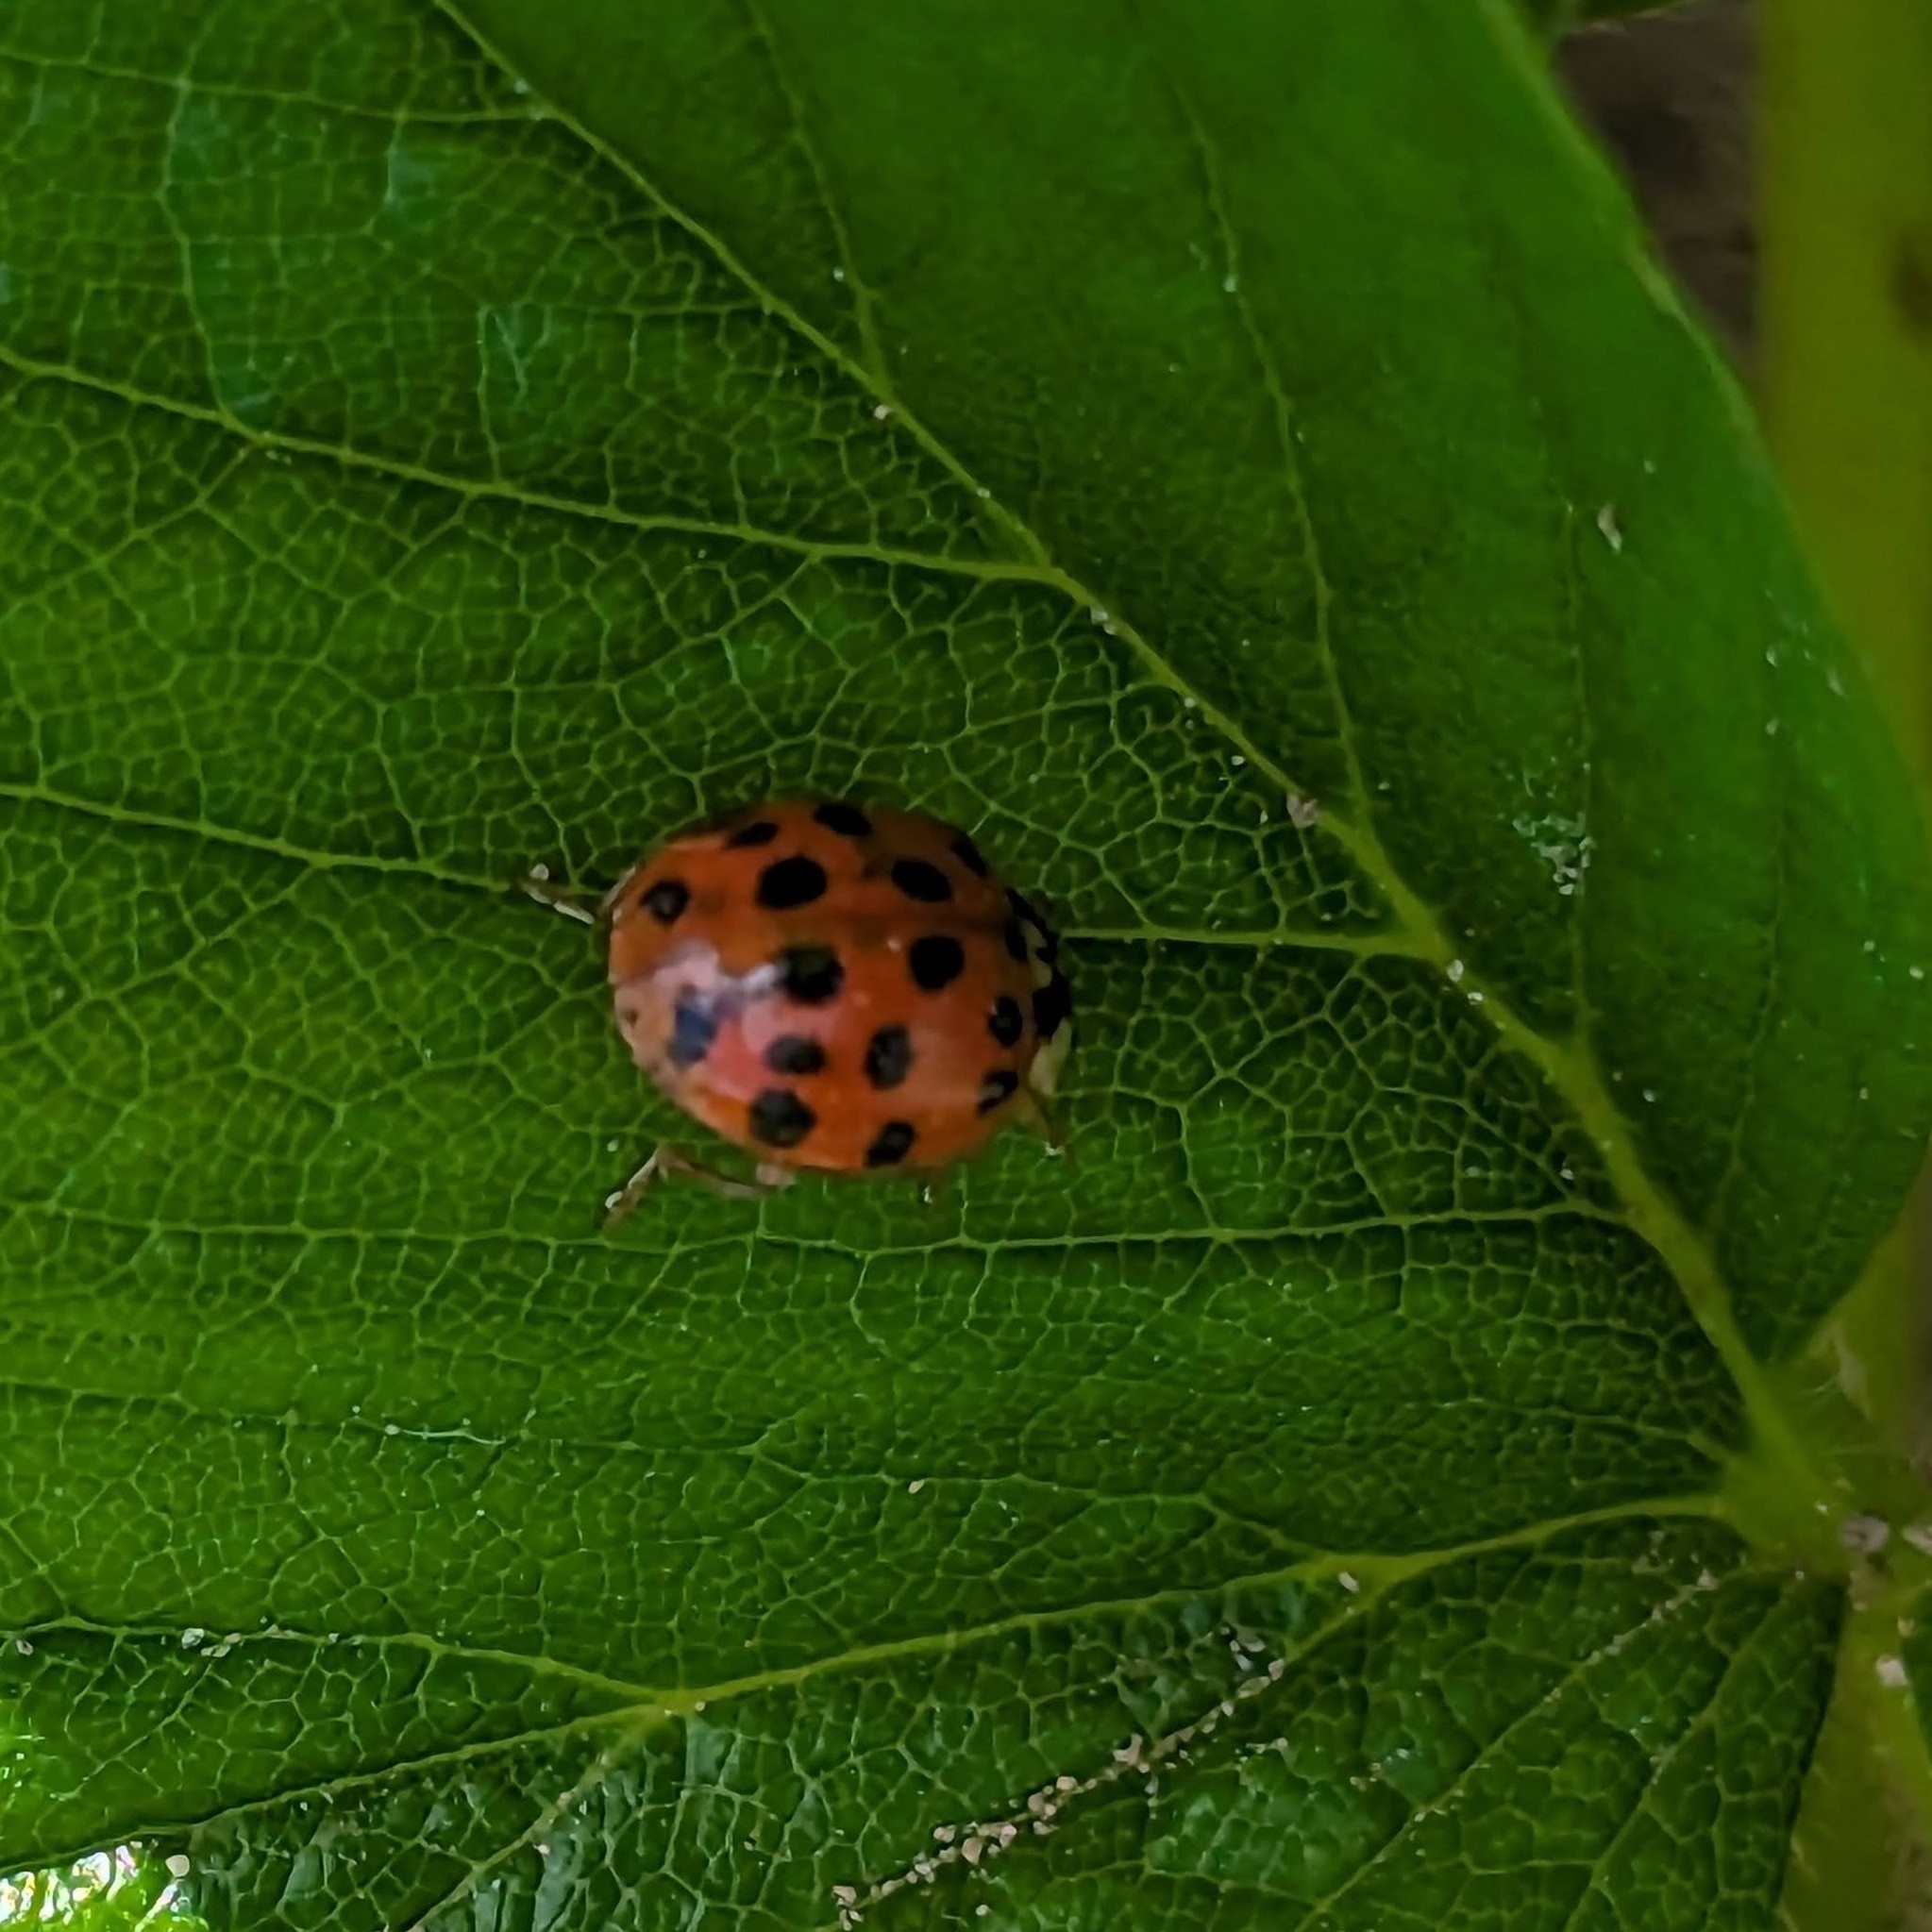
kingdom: Animalia
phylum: Arthropoda
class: Insecta
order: Coleoptera
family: Coccinellidae
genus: Harmonia
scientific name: Harmonia axyridis
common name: Harlequin ladybird
